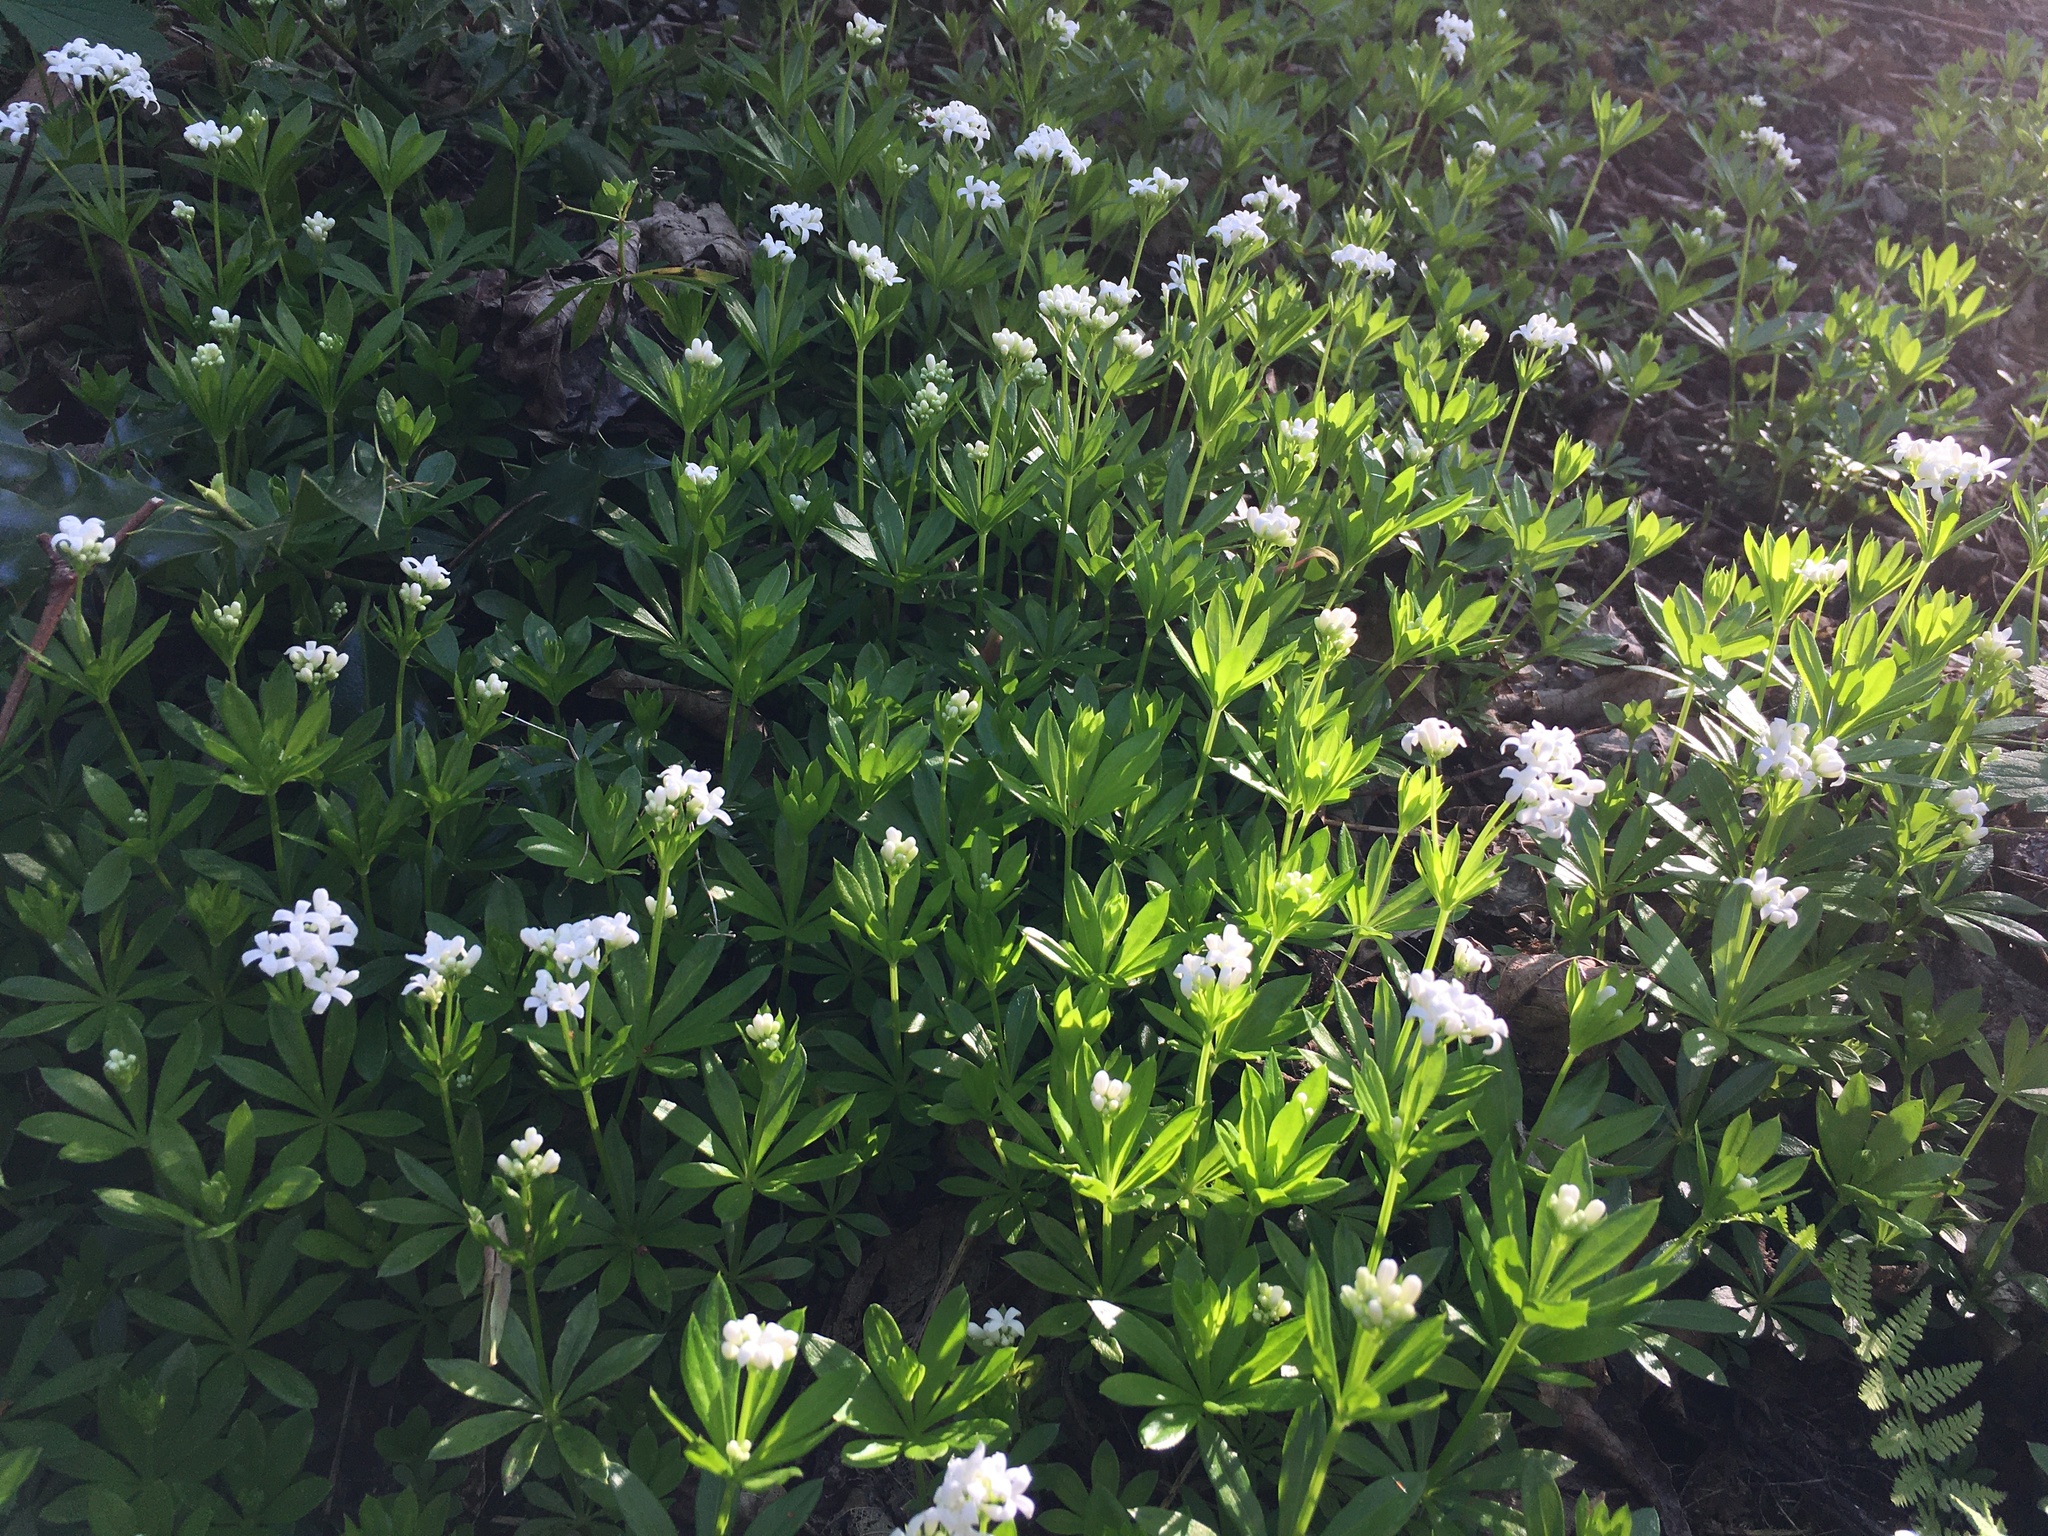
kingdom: Plantae
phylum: Tracheophyta
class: Magnoliopsida
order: Gentianales
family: Rubiaceae
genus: Galium
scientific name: Galium odoratum
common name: Sweet woodruff
